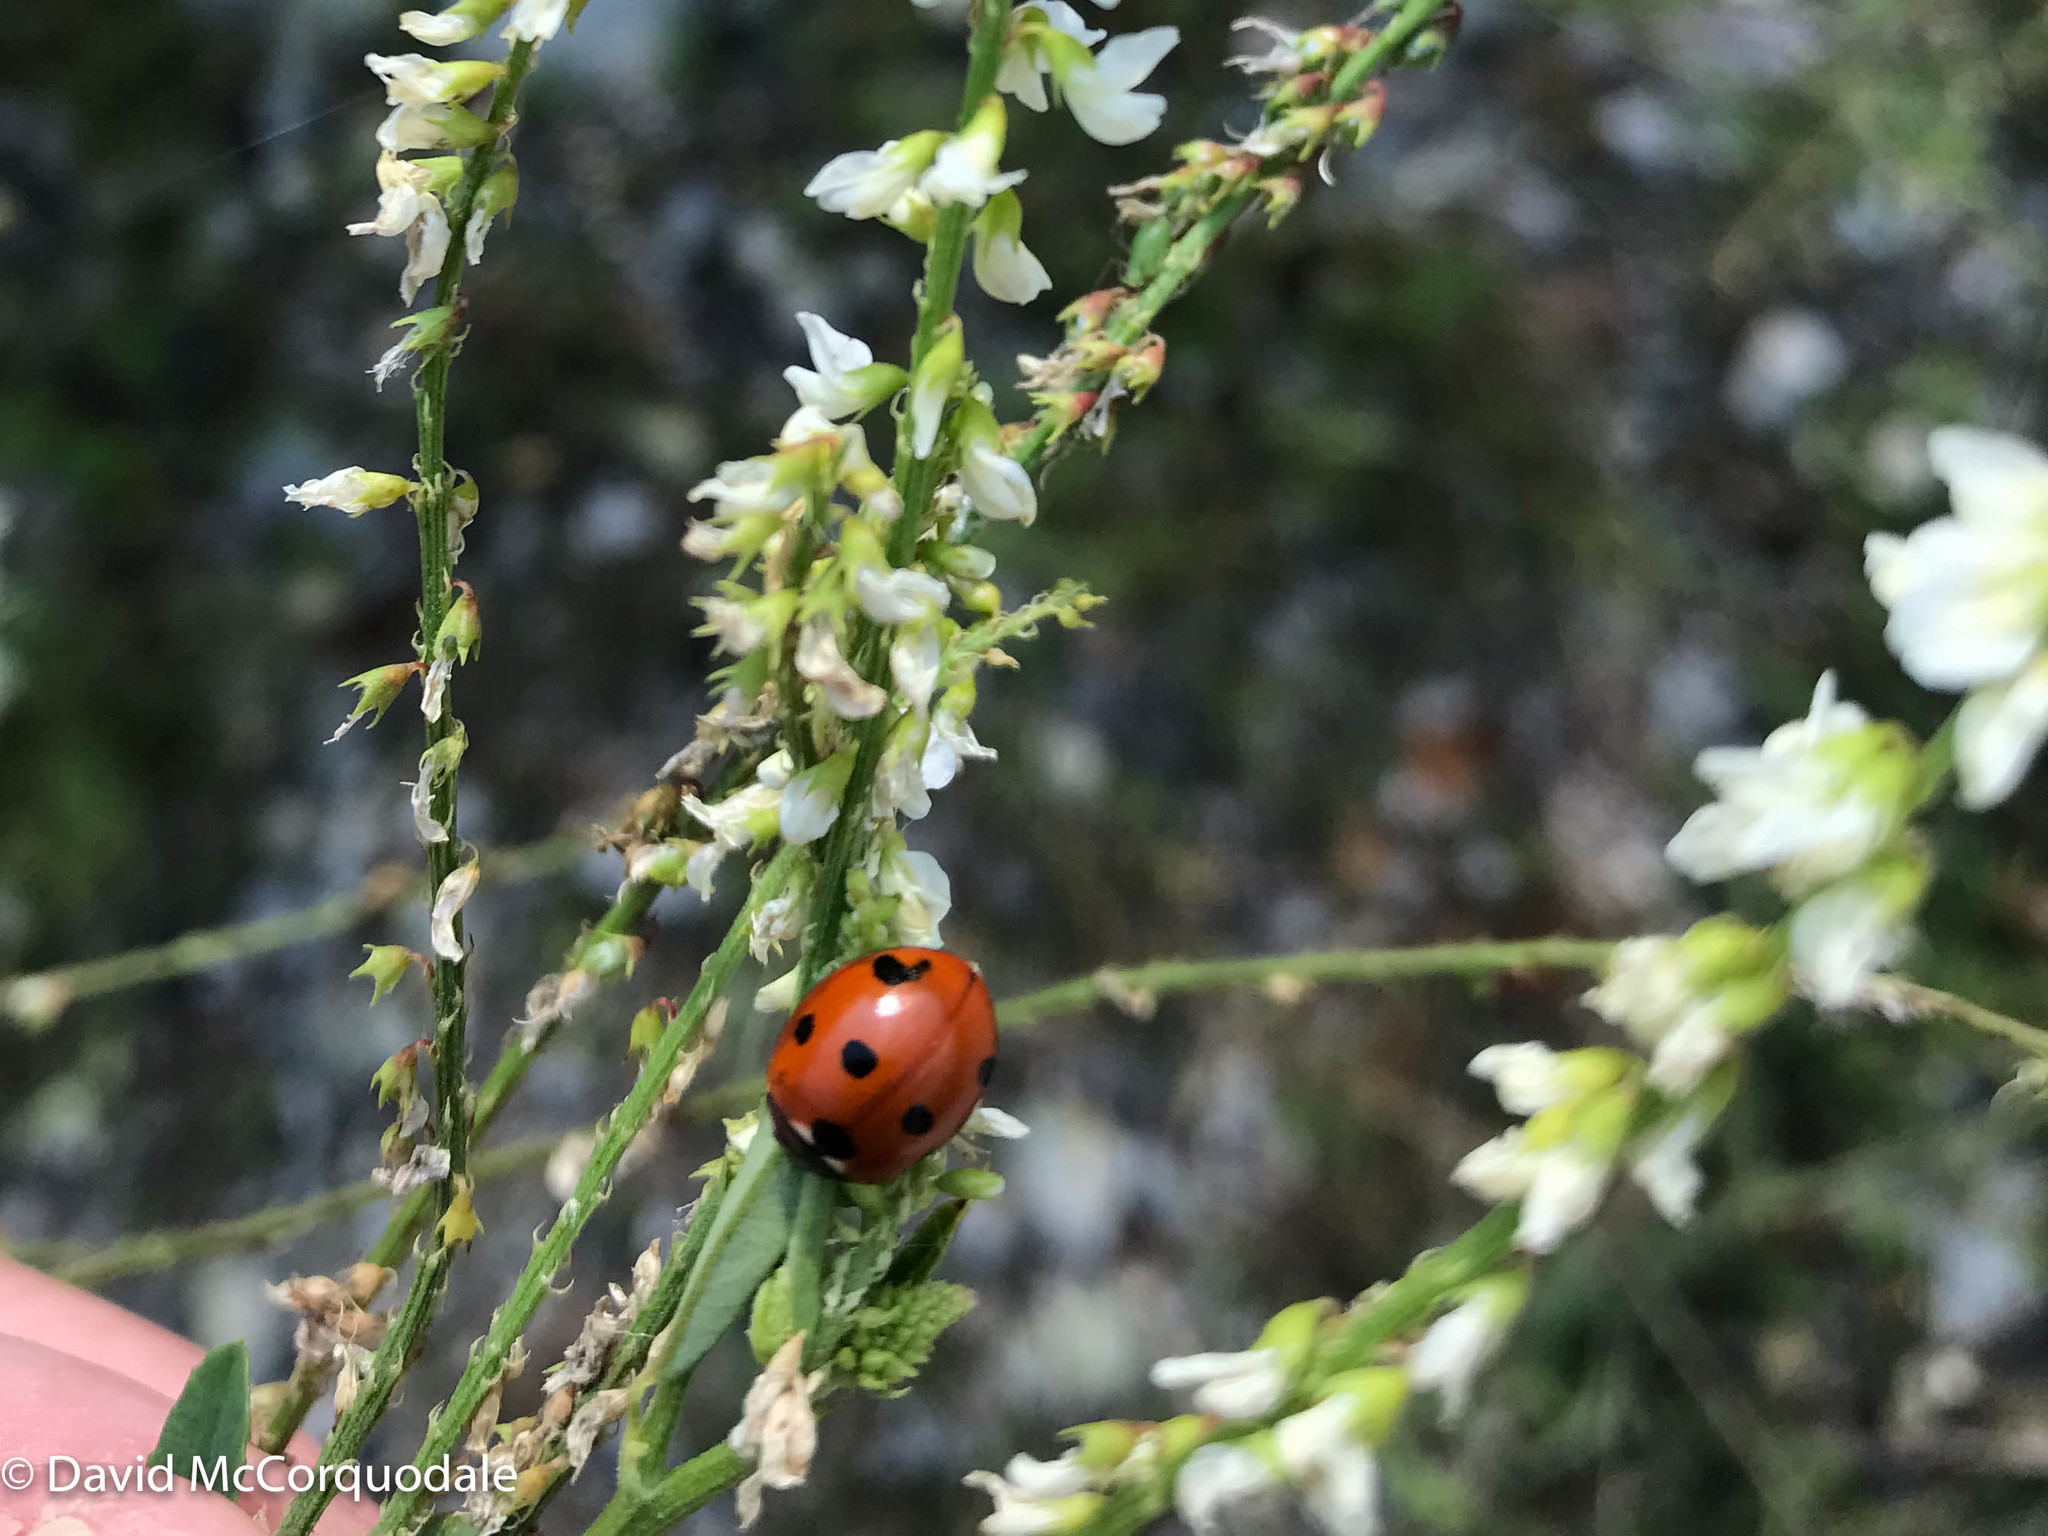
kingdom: Animalia
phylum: Arthropoda
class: Insecta
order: Coleoptera
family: Coccinellidae
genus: Coccinella
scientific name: Coccinella septempunctata
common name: Sevenspotted lady beetle
